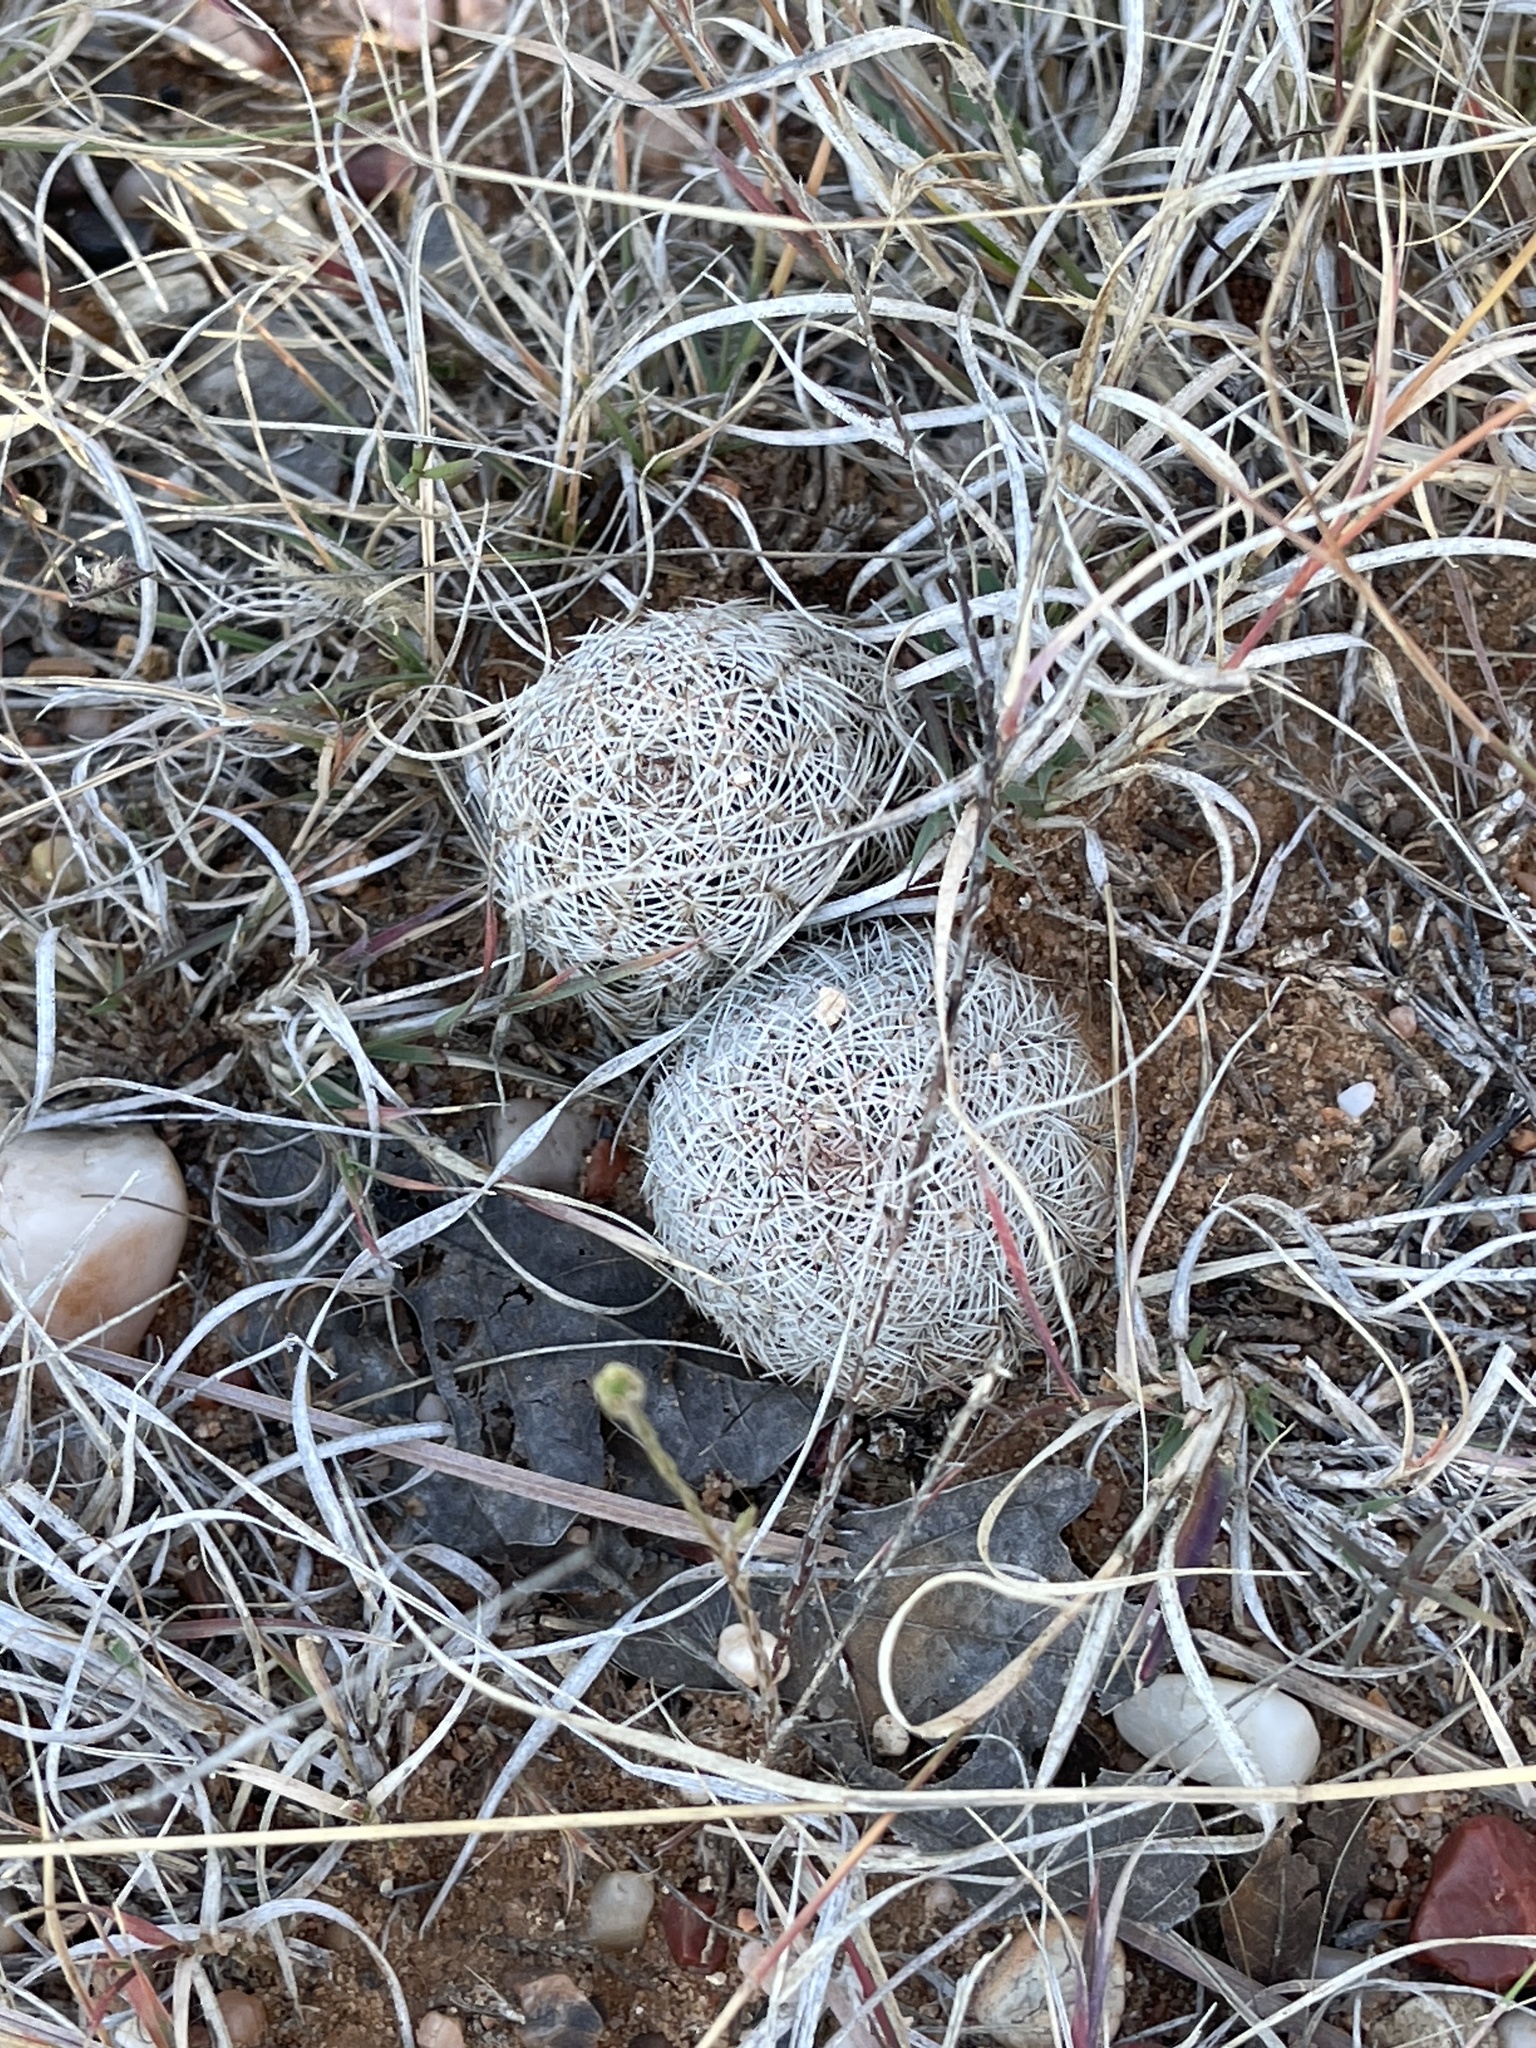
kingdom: Plantae
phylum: Tracheophyta
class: Magnoliopsida
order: Caryophyllales
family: Cactaceae
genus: Echinocereus
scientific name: Echinocereus reichenbachii
